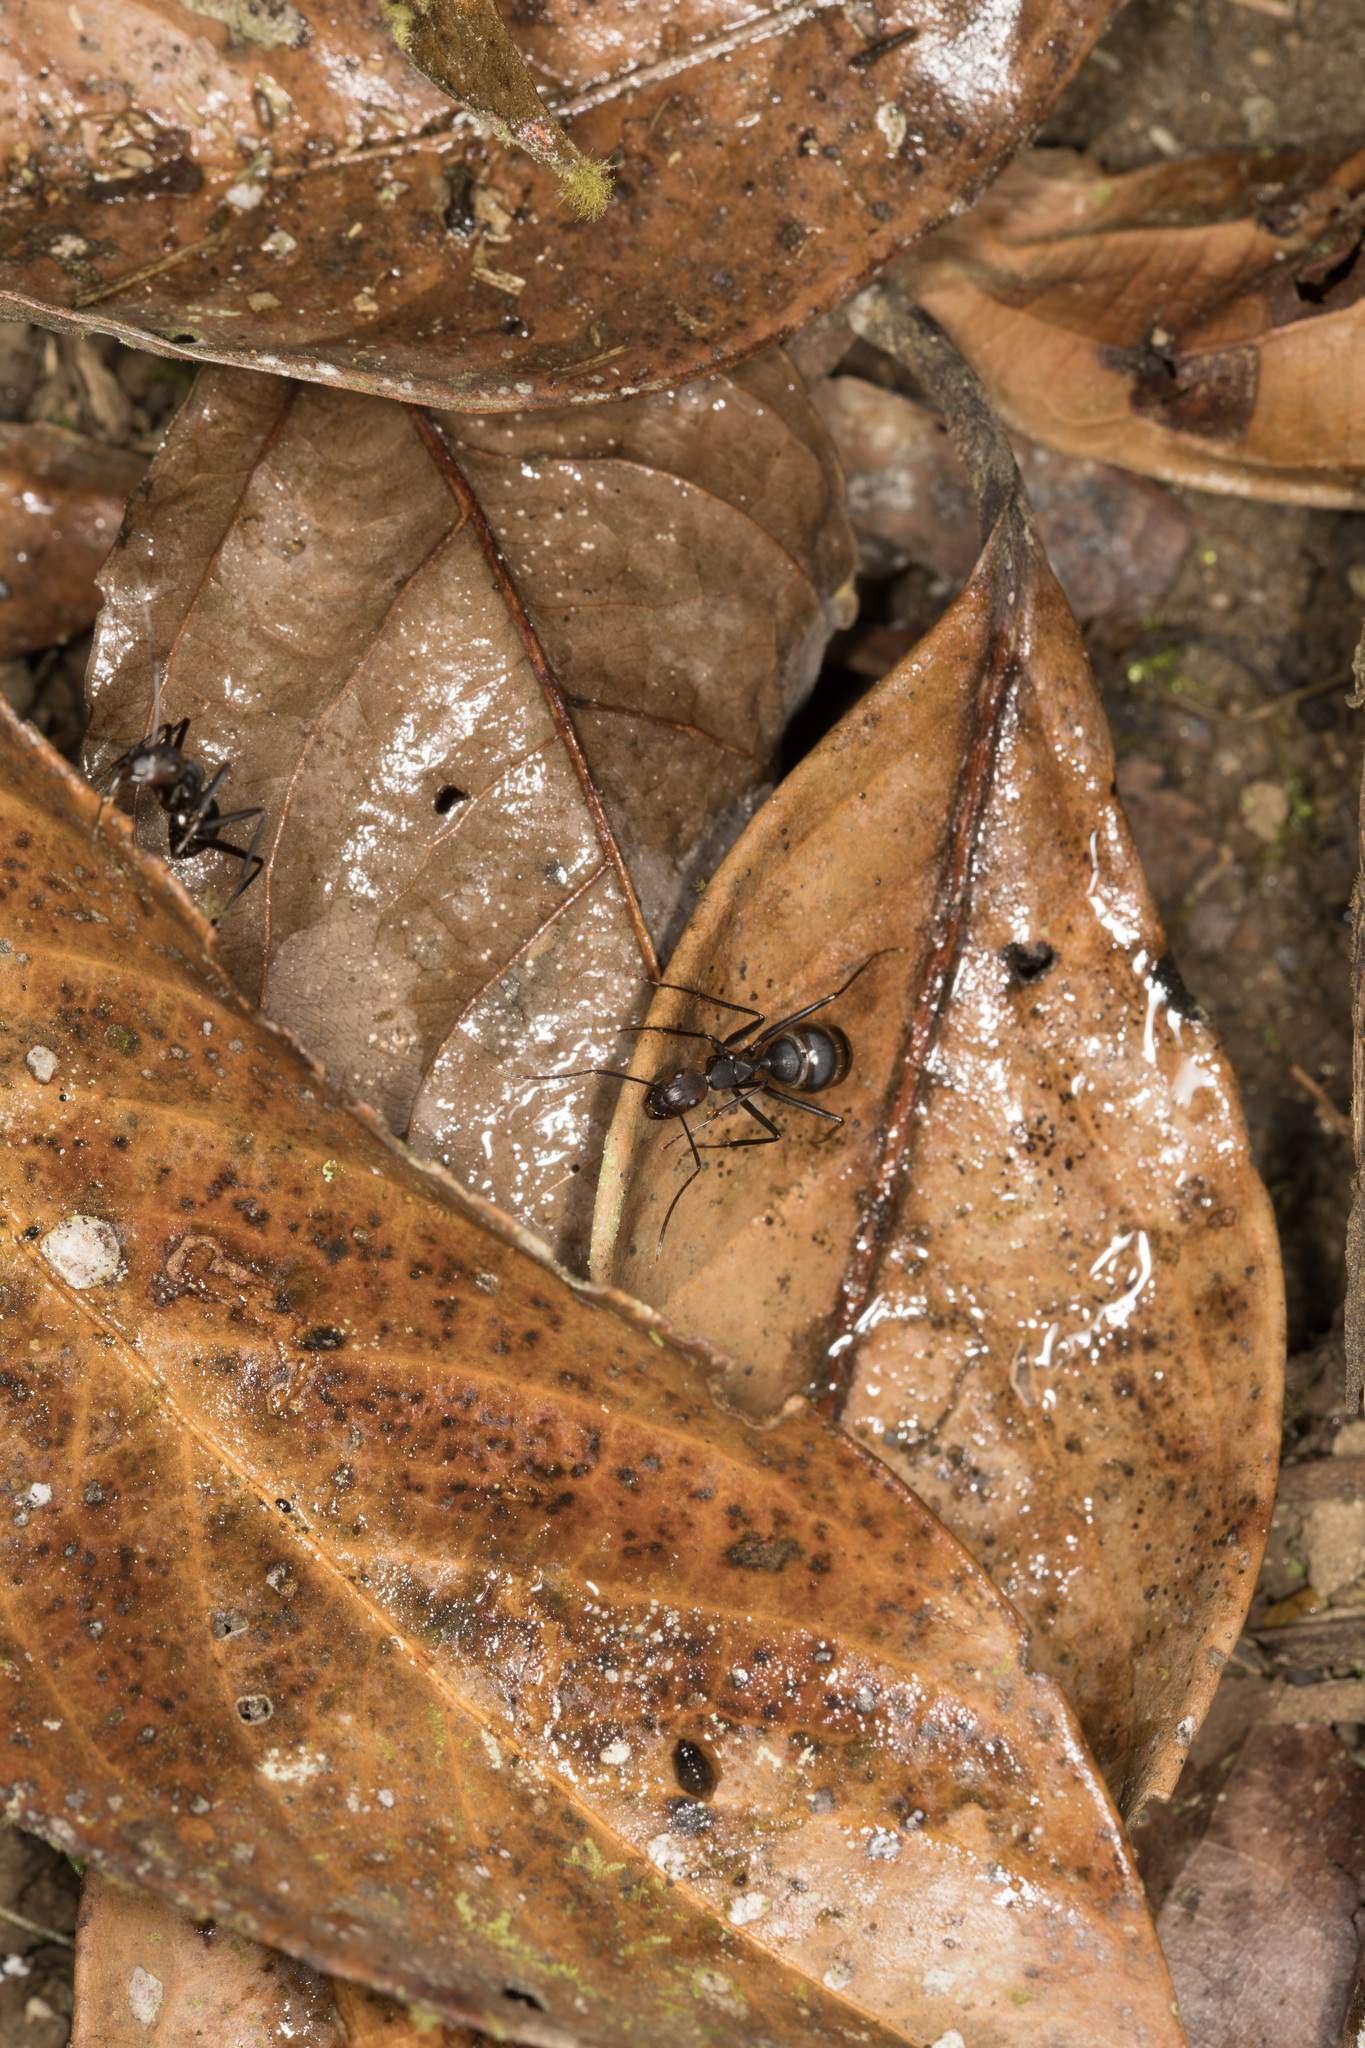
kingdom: Animalia
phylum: Arthropoda
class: Insecta
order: Hymenoptera
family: Formicidae
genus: Camponotus
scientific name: Camponotus haematocephalus
